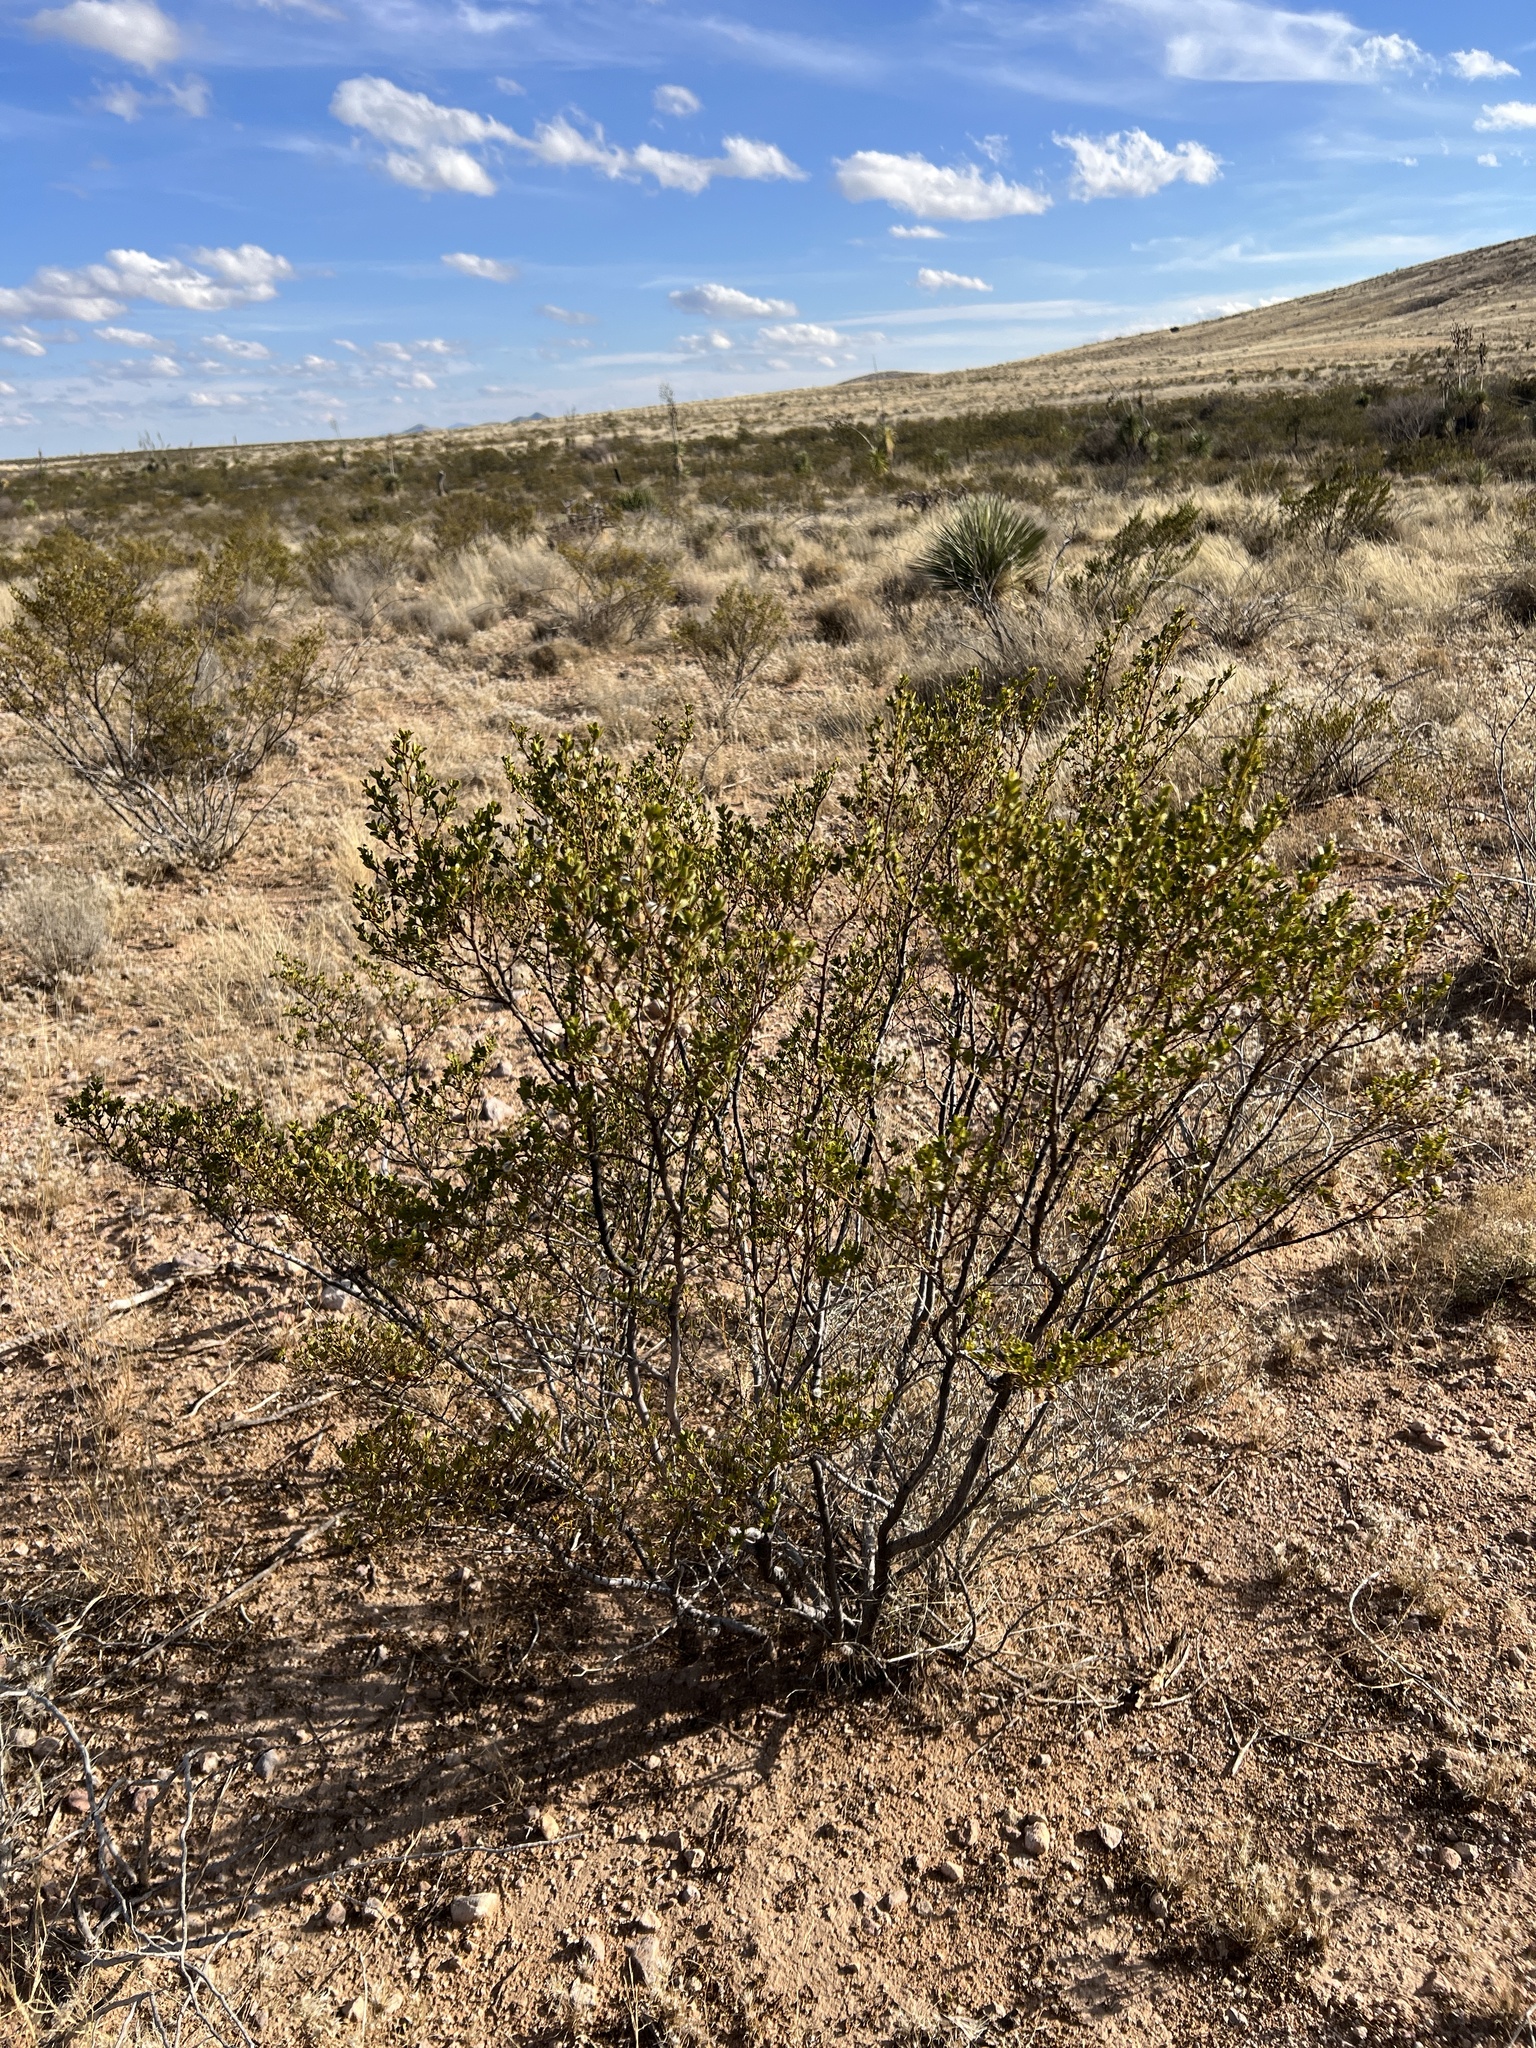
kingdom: Plantae
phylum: Tracheophyta
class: Magnoliopsida
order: Zygophyllales
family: Zygophyllaceae
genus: Larrea
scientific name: Larrea tridentata
